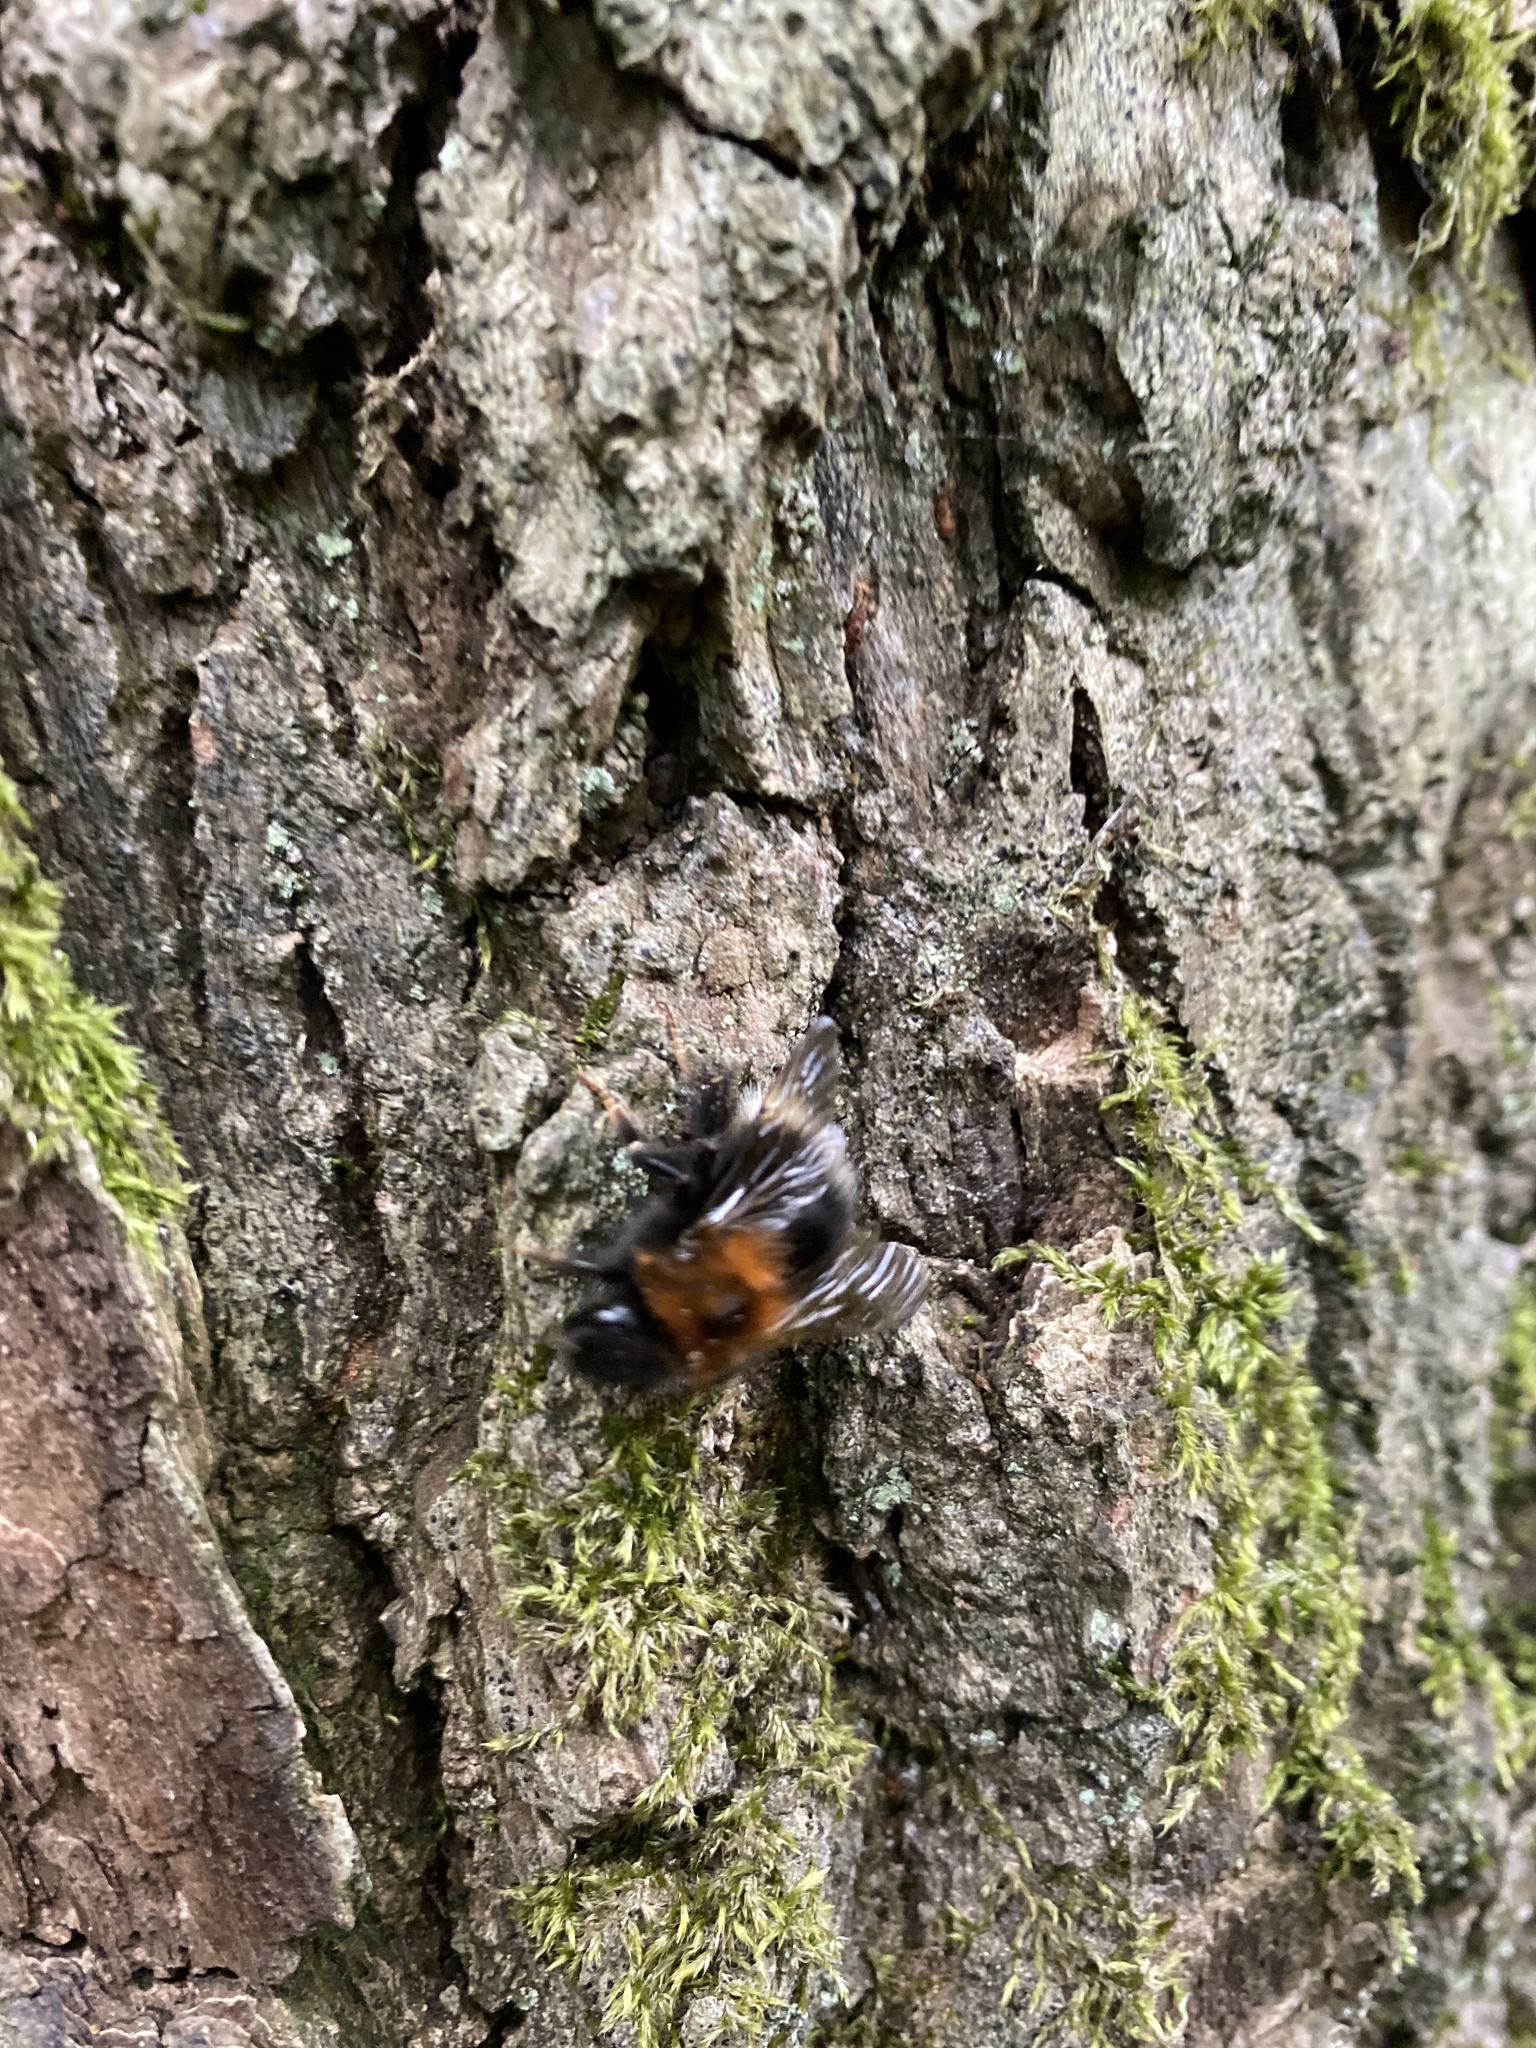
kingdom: Animalia
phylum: Arthropoda
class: Insecta
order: Hymenoptera
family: Apidae
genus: Bombus
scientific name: Bombus hypnorum
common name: New garden bumblebee
